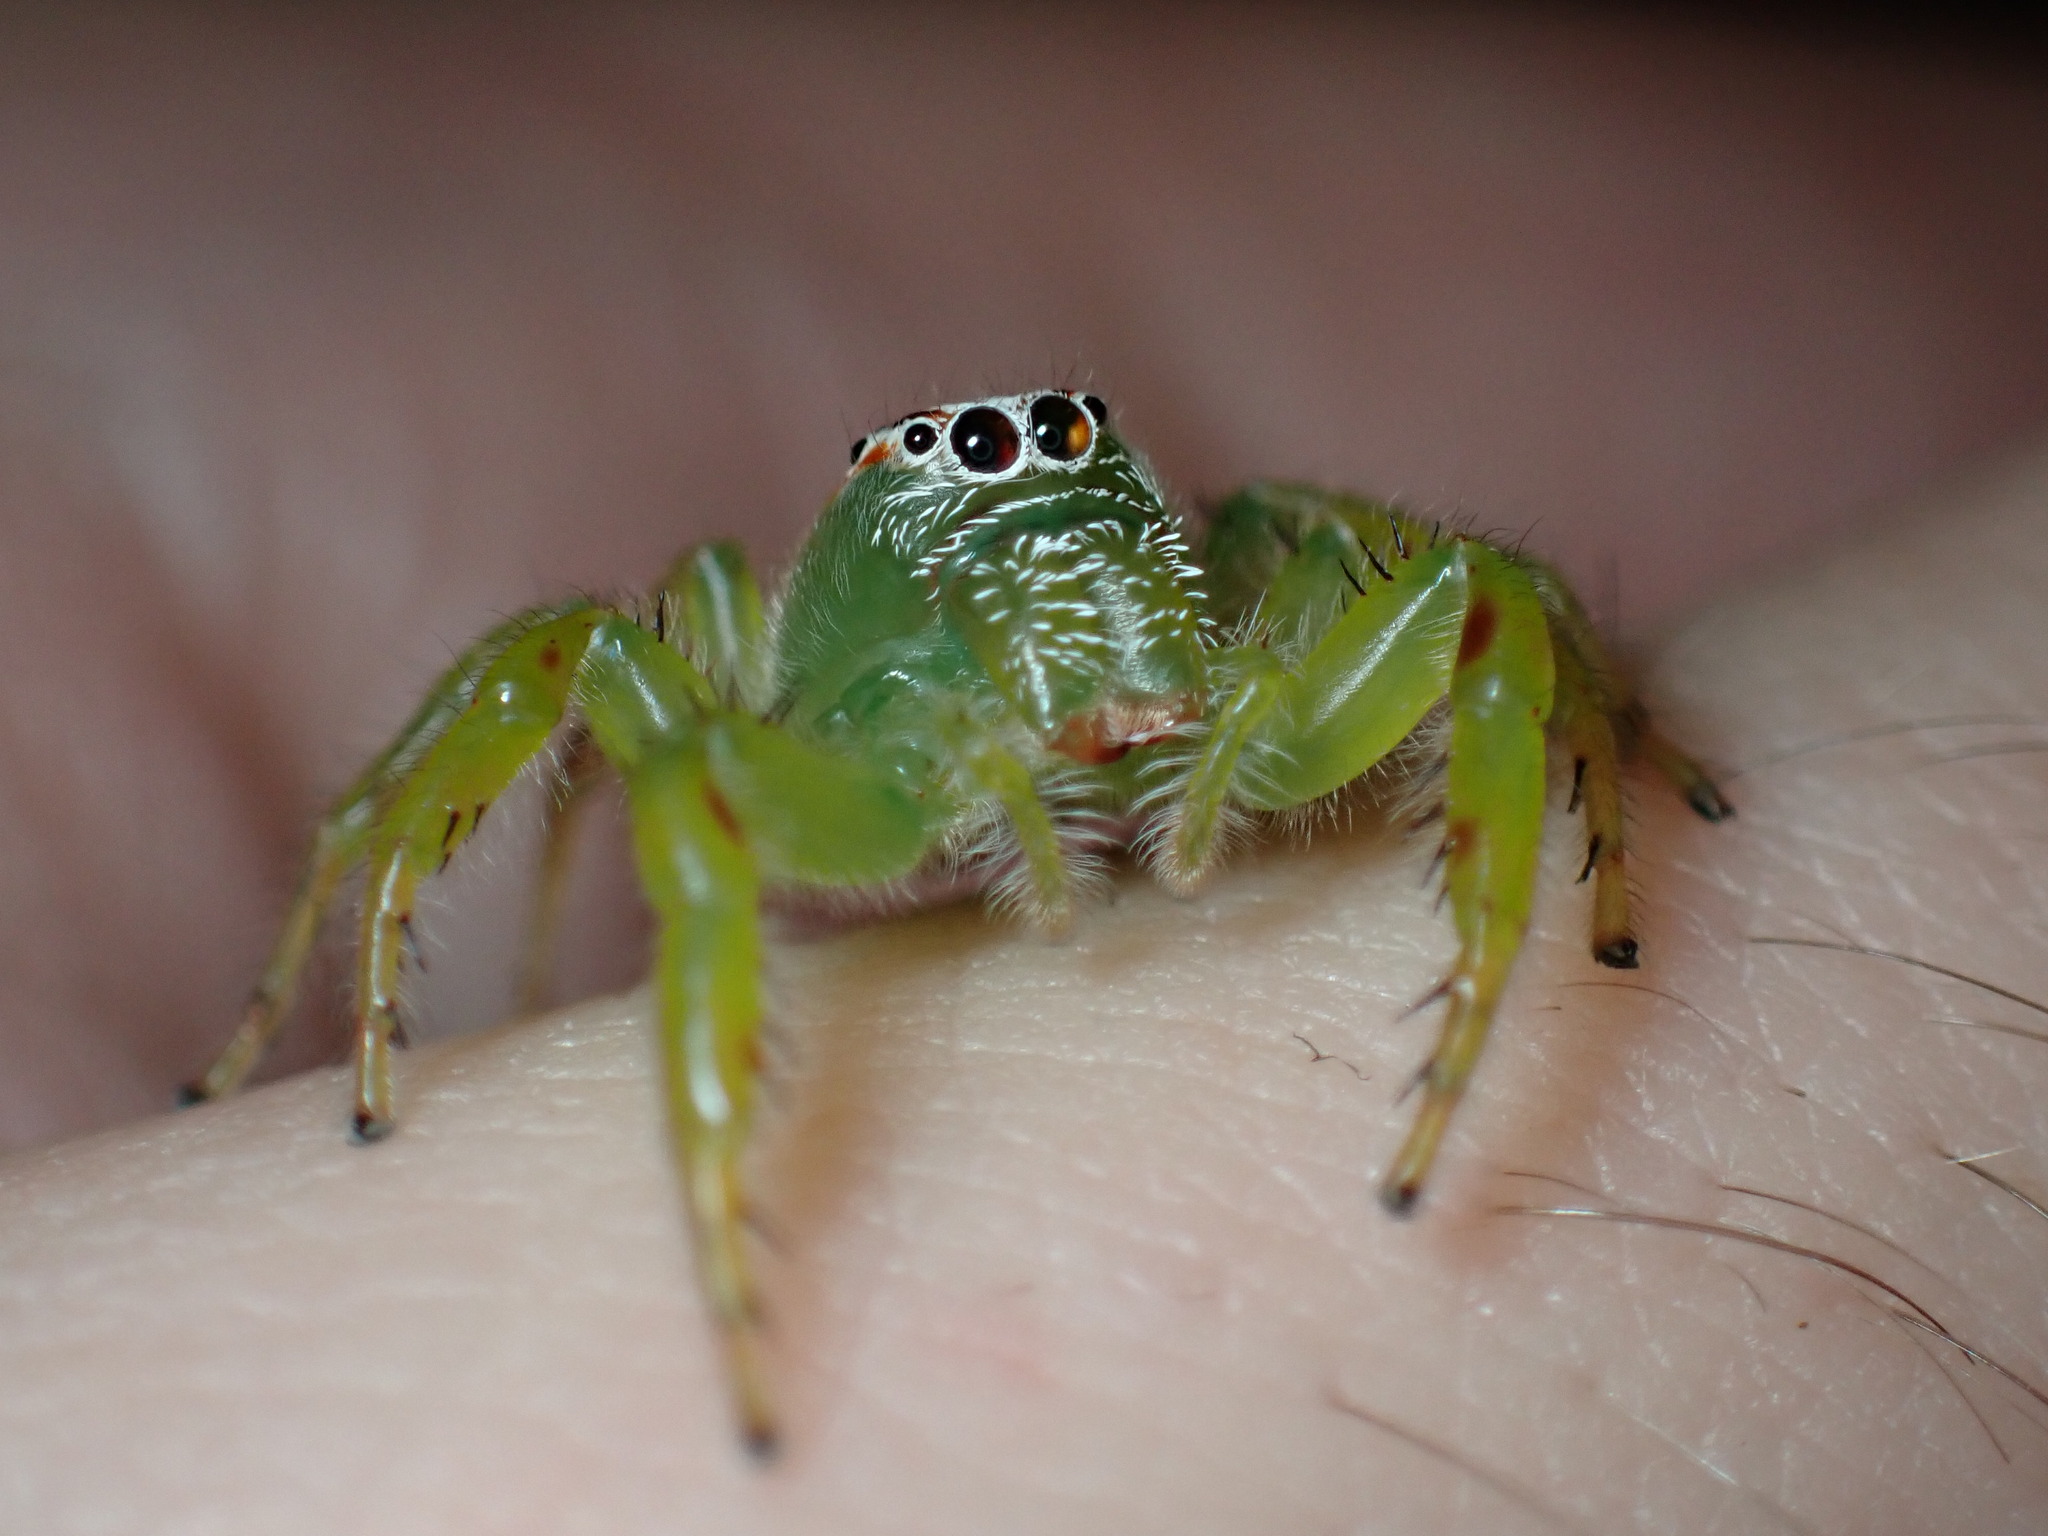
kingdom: Animalia
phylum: Arthropoda
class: Arachnida
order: Araneae
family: Salticidae
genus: Mopsus
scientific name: Mopsus mormon
